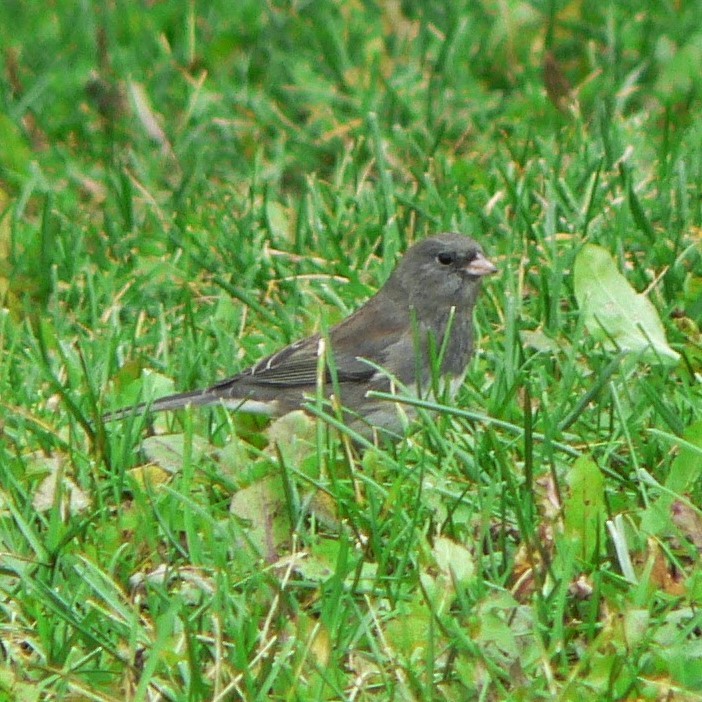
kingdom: Animalia
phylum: Chordata
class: Aves
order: Passeriformes
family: Passerellidae
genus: Junco
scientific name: Junco hyemalis
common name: Dark-eyed junco
